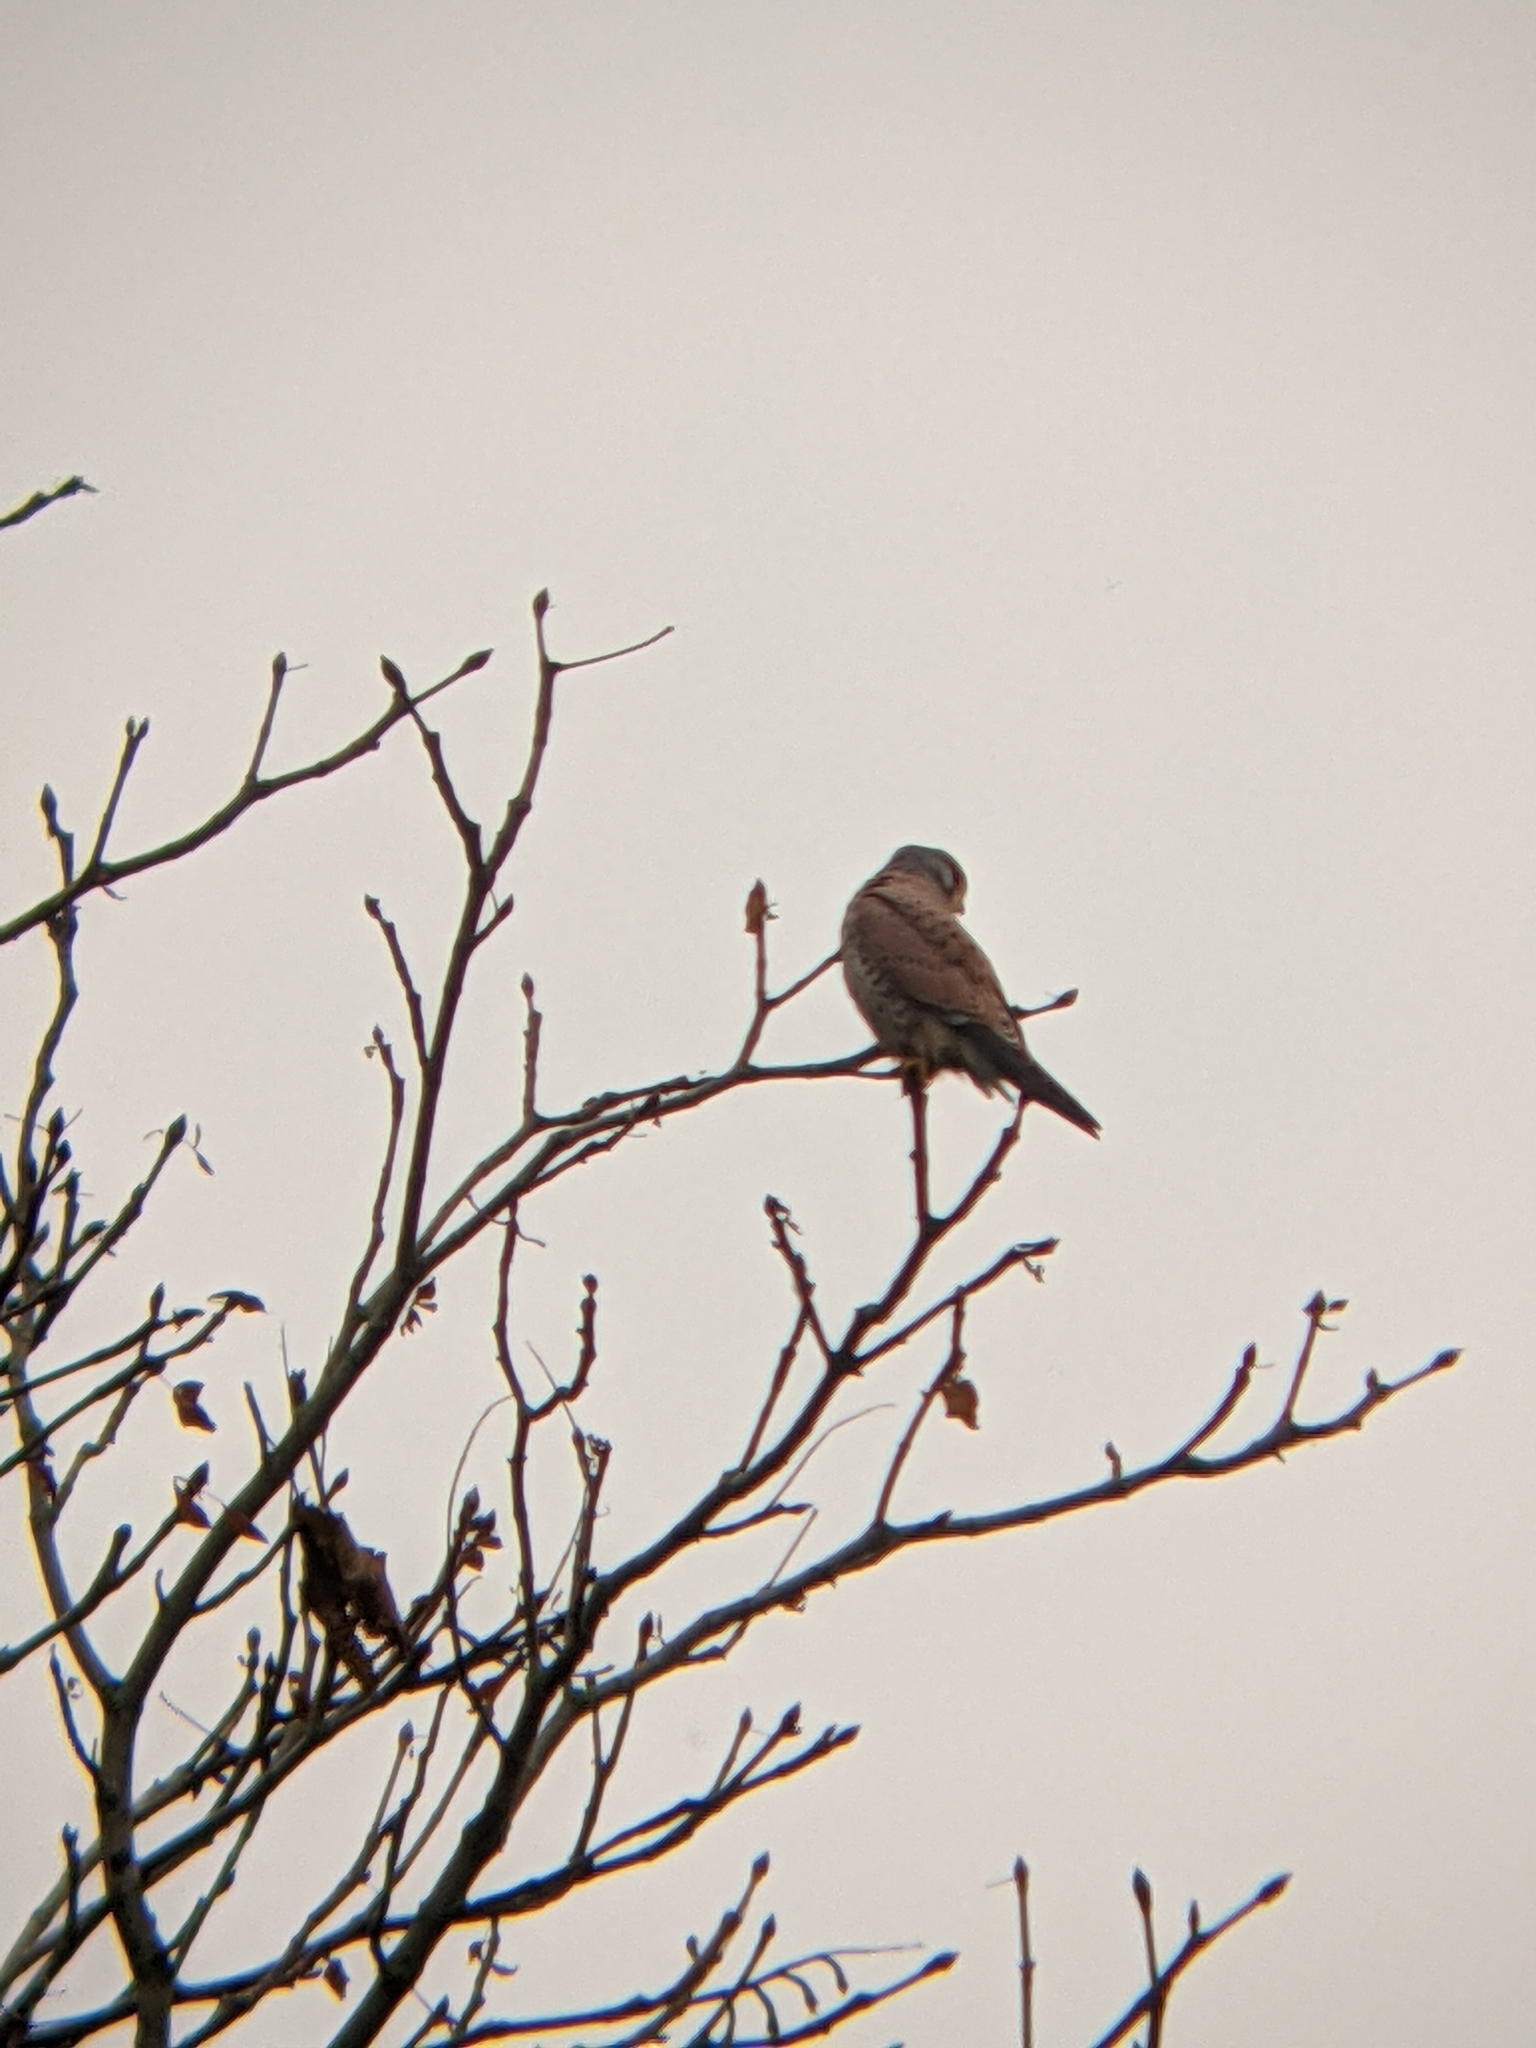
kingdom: Animalia
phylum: Chordata
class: Aves
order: Falconiformes
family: Falconidae
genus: Falco
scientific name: Falco tinnunculus
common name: Common kestrel
